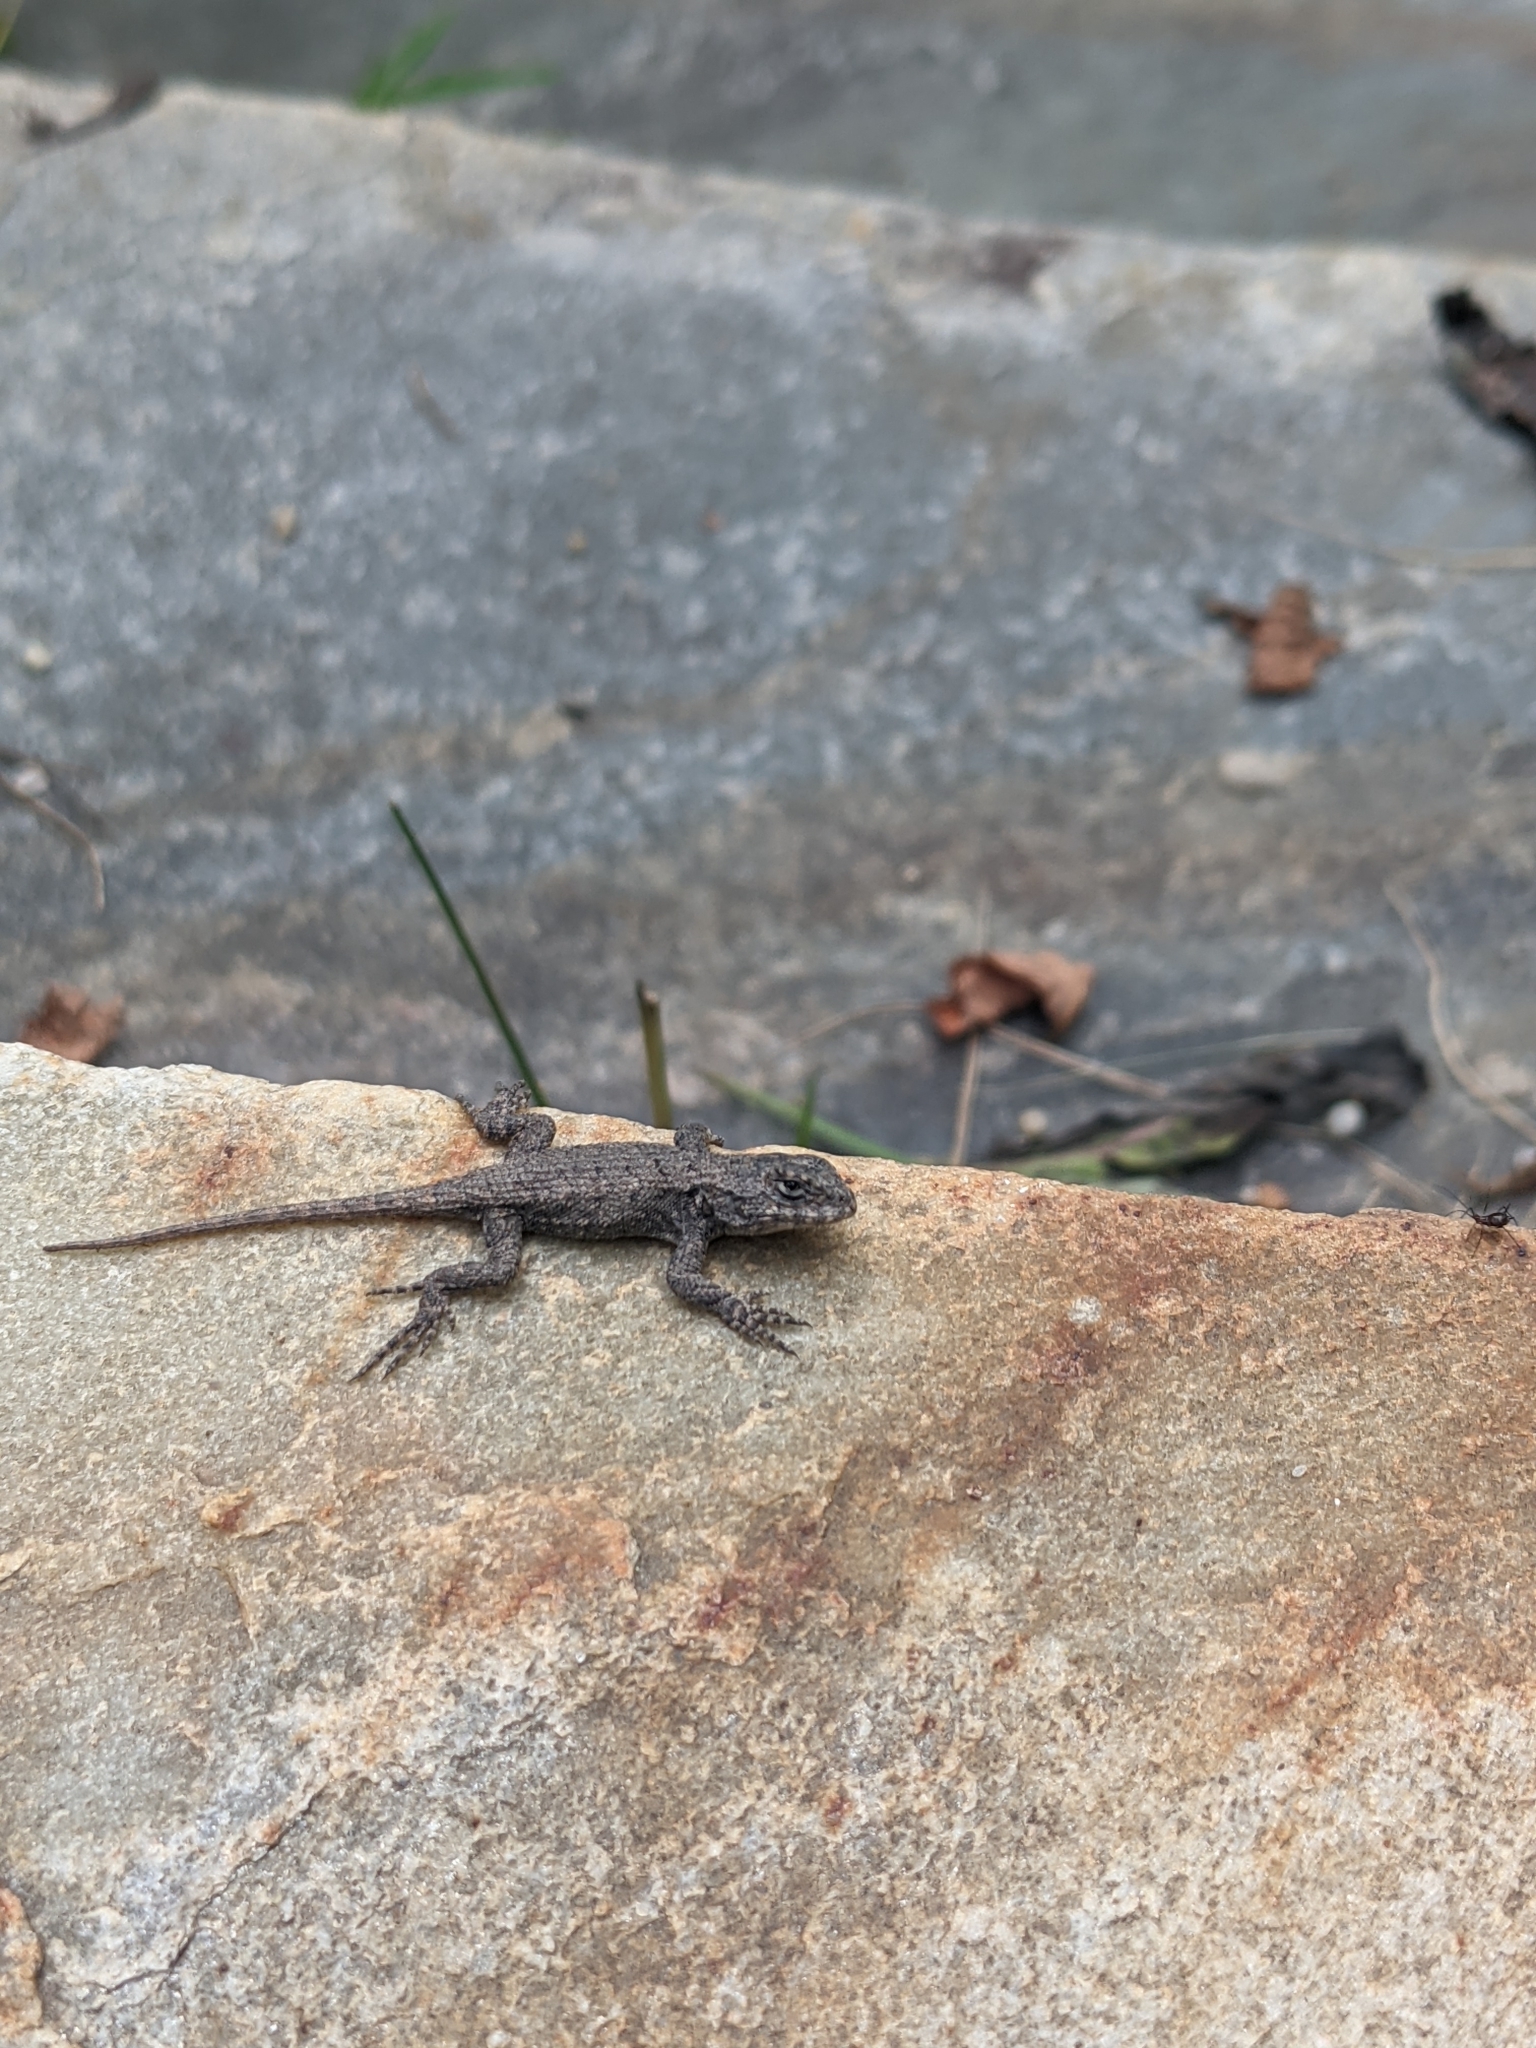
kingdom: Animalia
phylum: Chordata
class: Squamata
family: Phrynosomatidae
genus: Sceloporus
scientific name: Sceloporus undulatus
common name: Eastern fence lizard
